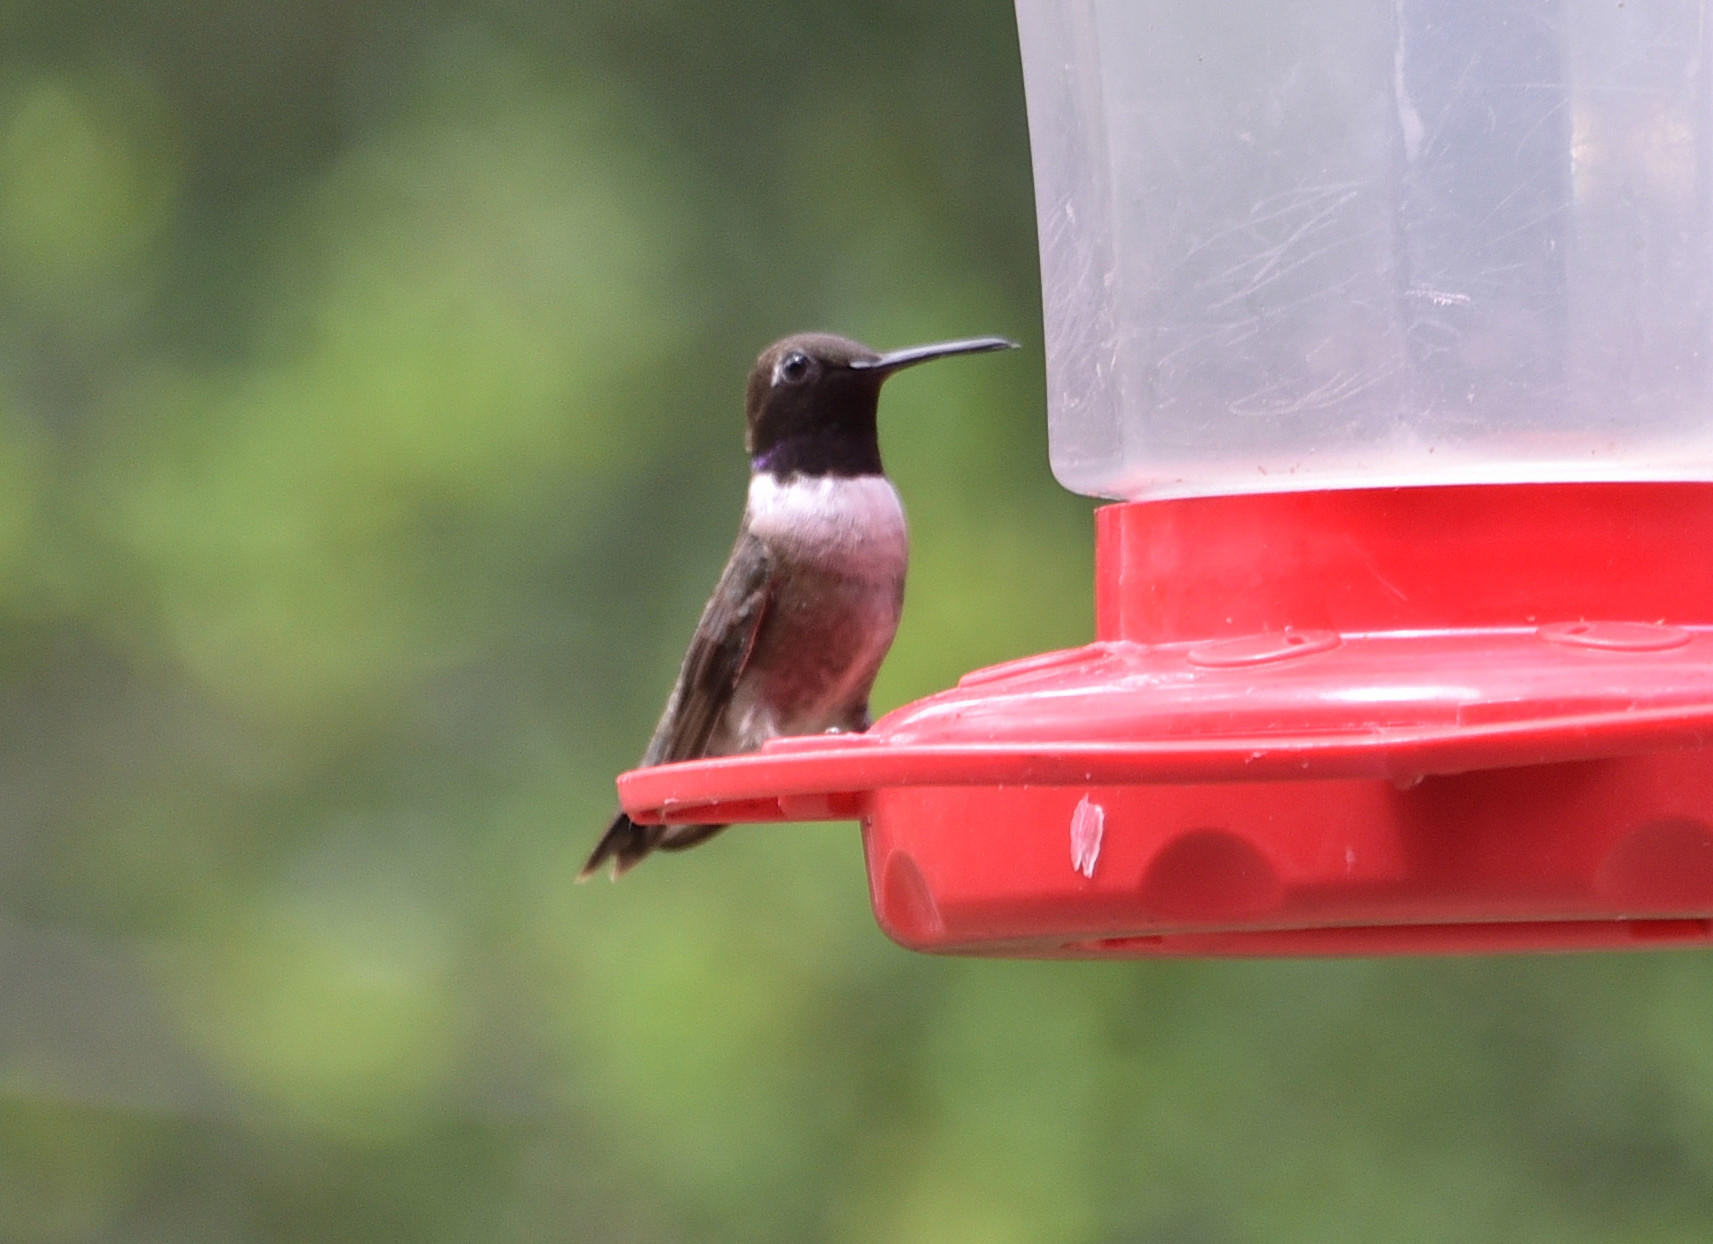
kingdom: Animalia
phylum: Chordata
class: Aves
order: Apodiformes
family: Trochilidae
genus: Archilochus
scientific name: Archilochus alexandri
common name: Black-chinned hummingbird
